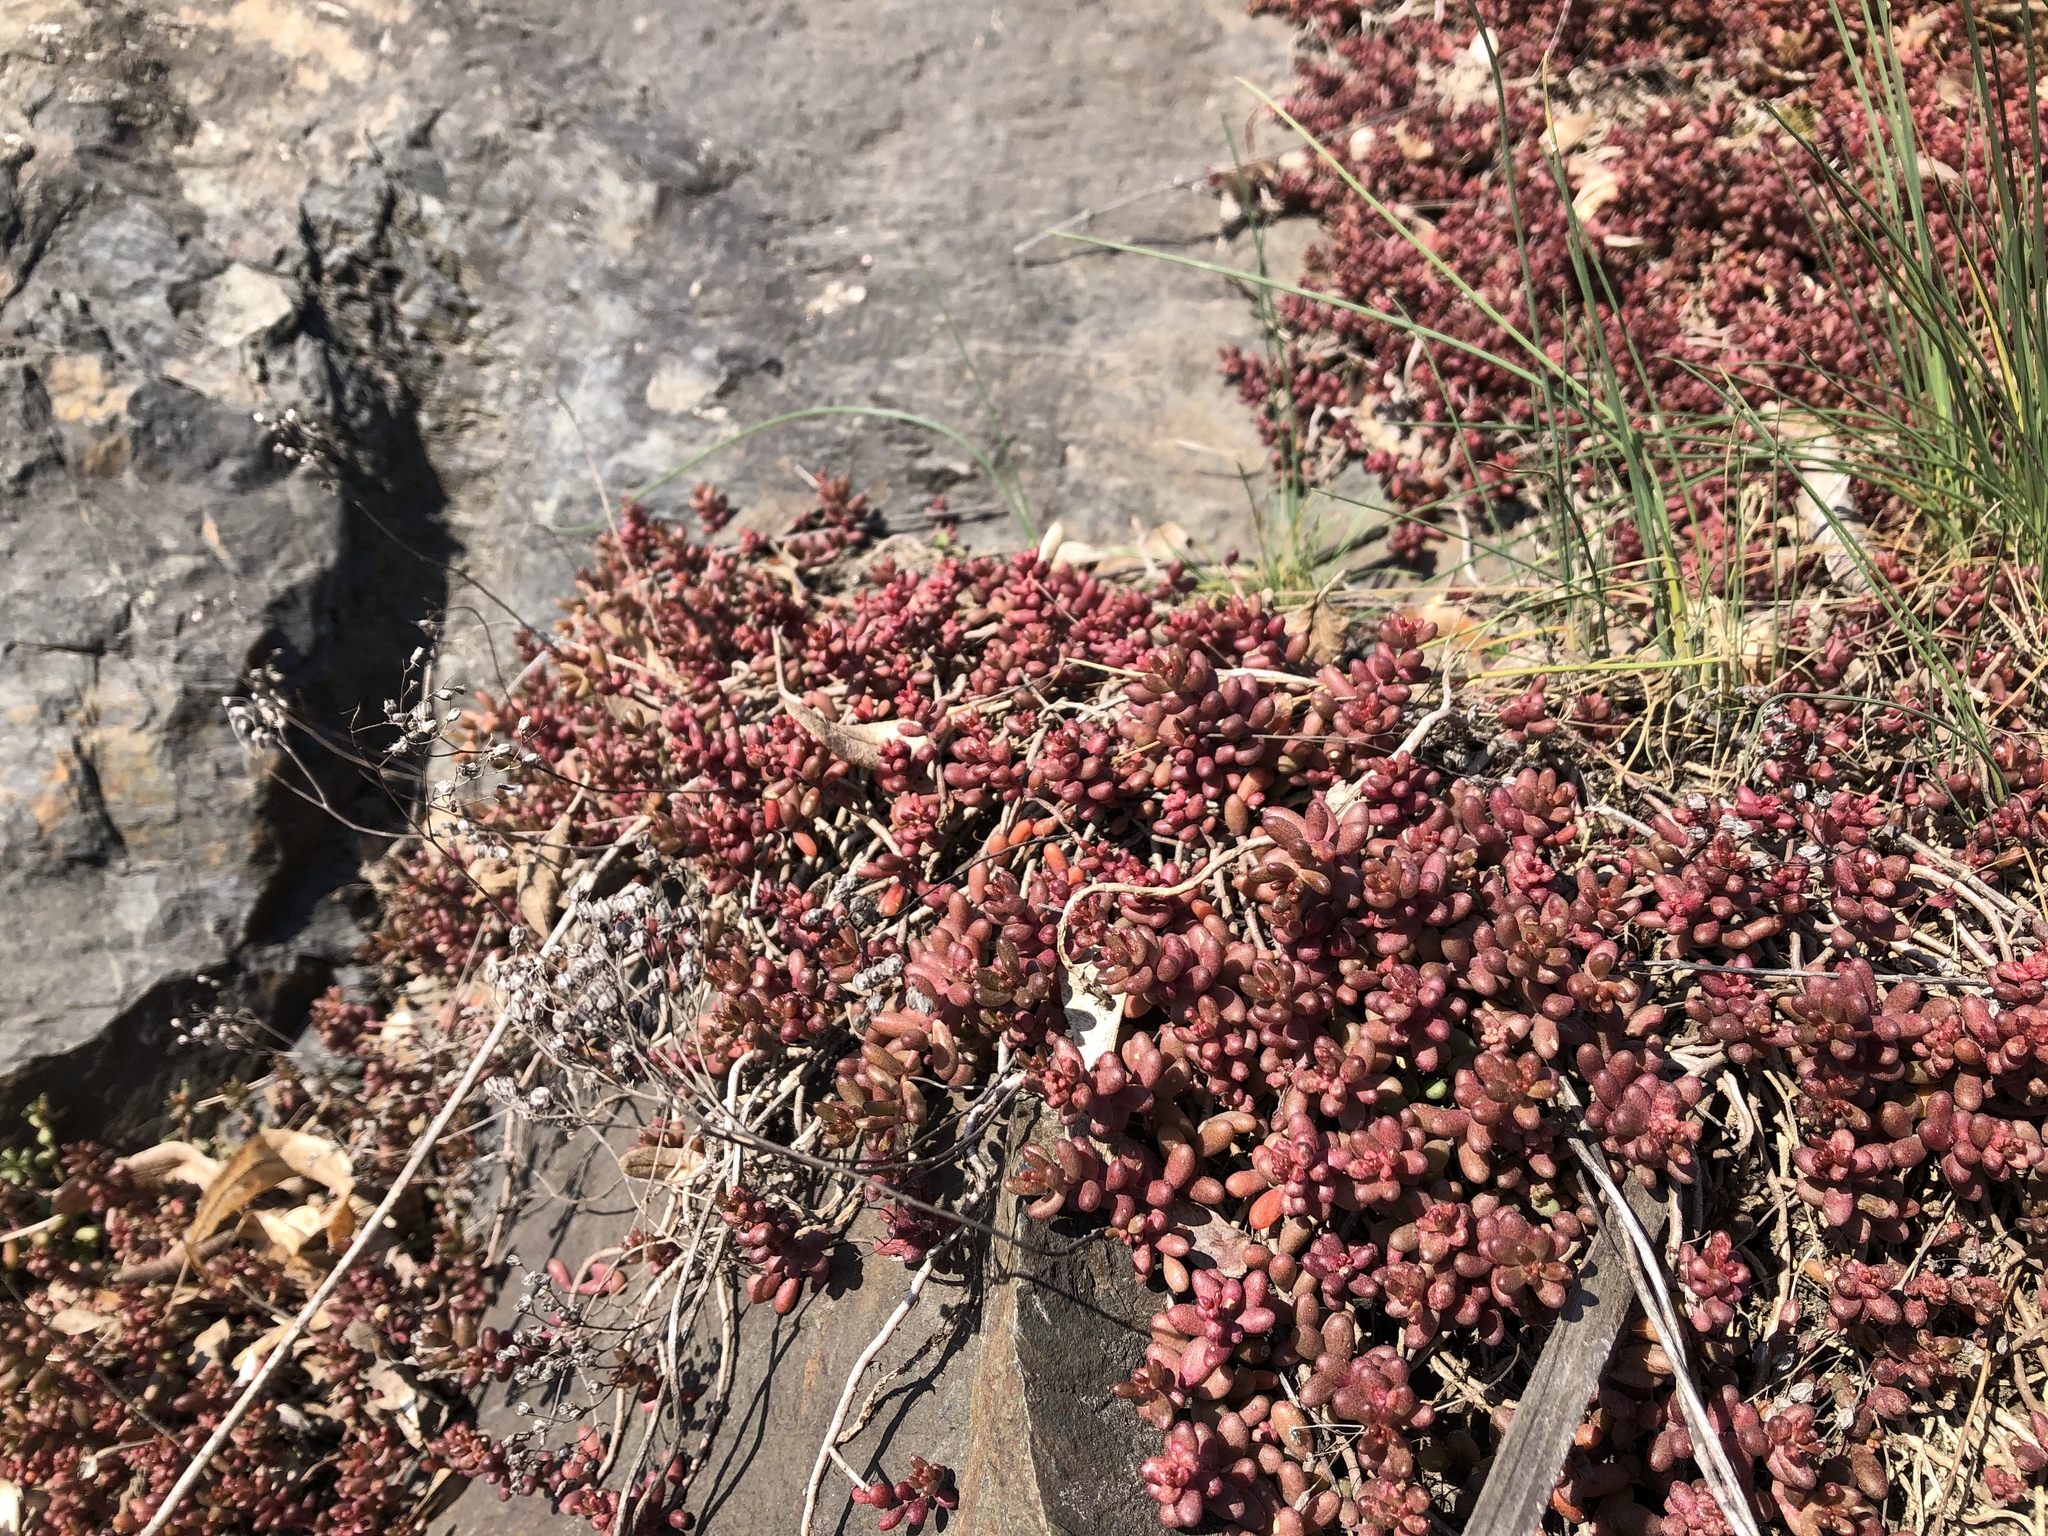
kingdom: Plantae
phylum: Tracheophyta
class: Magnoliopsida
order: Saxifragales
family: Crassulaceae
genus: Sedum
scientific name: Sedum album
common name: White stonecrop
